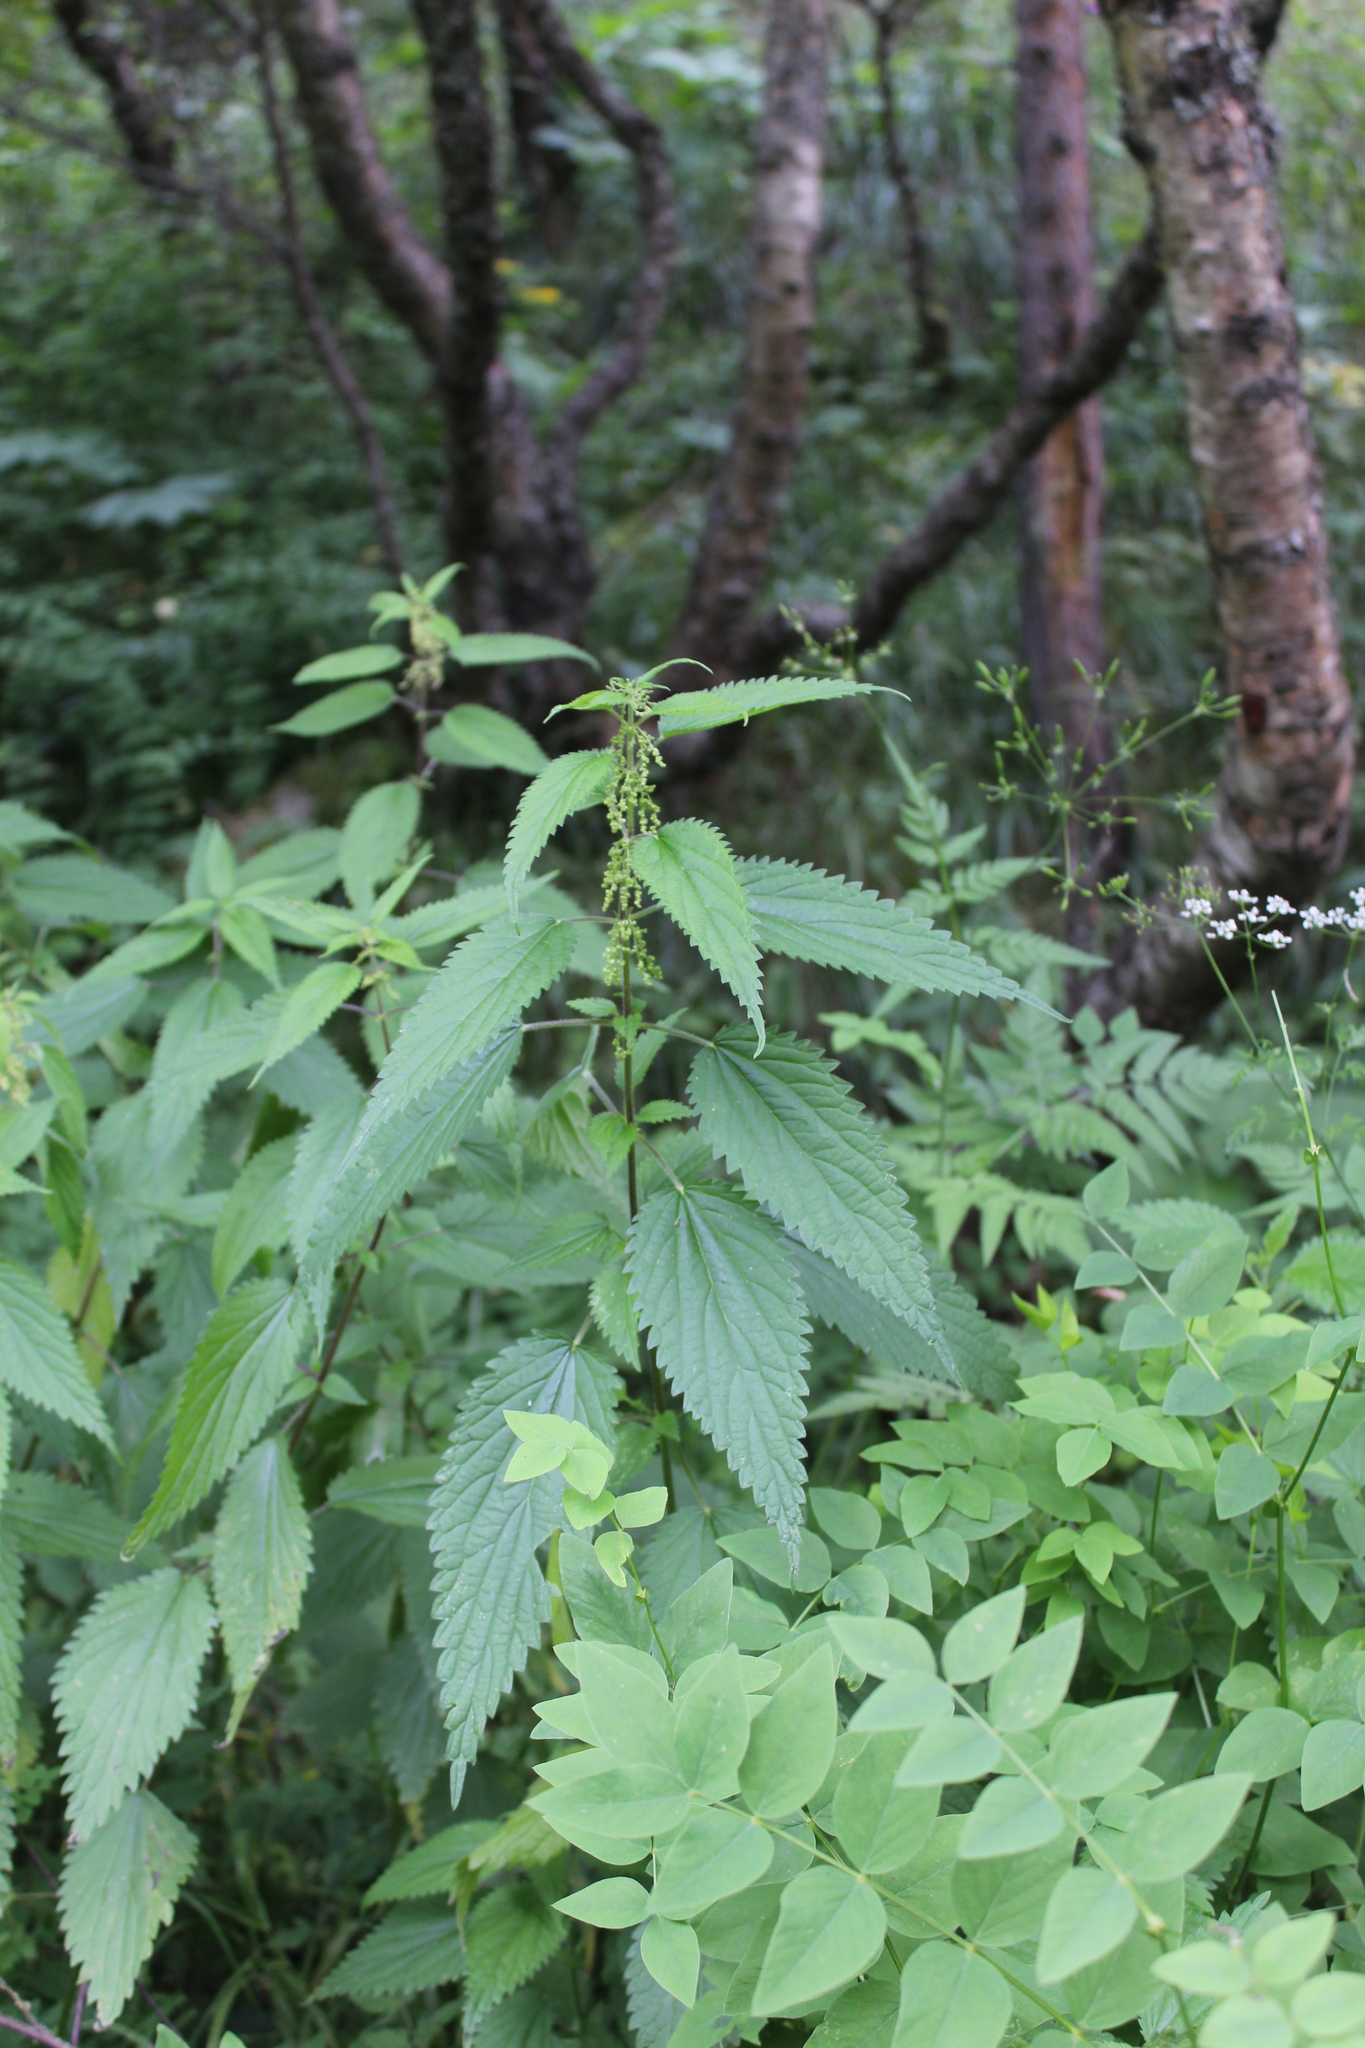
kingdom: Plantae
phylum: Tracheophyta
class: Magnoliopsida
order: Rosales
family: Urticaceae
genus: Urtica
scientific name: Urtica dioica
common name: Common nettle
